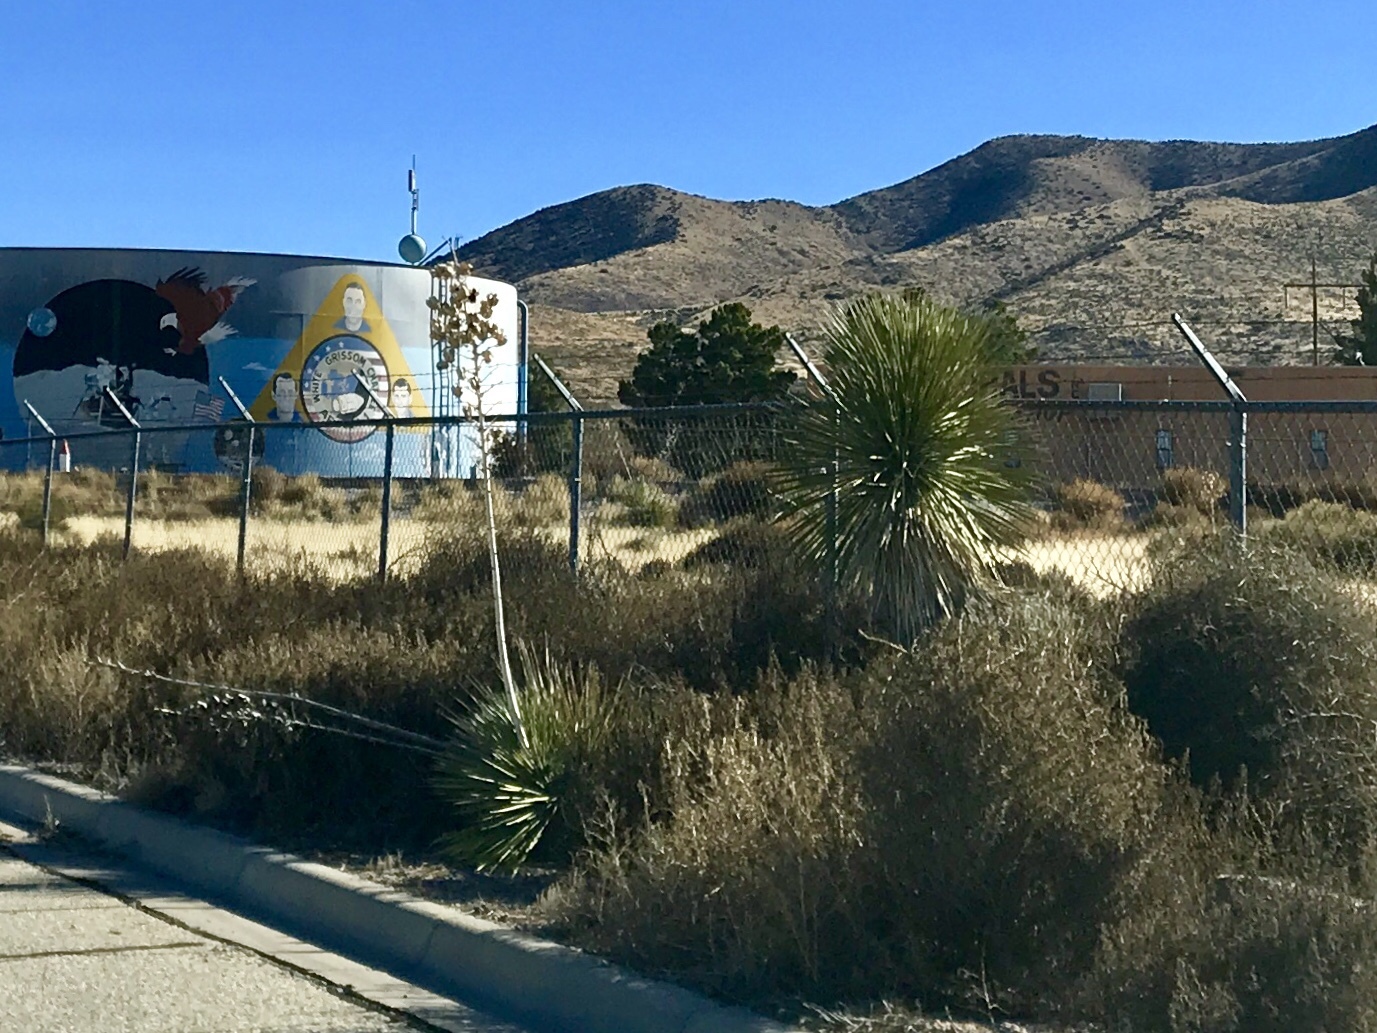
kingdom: Plantae
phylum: Tracheophyta
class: Liliopsida
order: Asparagales
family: Asparagaceae
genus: Yucca
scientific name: Yucca elata
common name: Palmella
